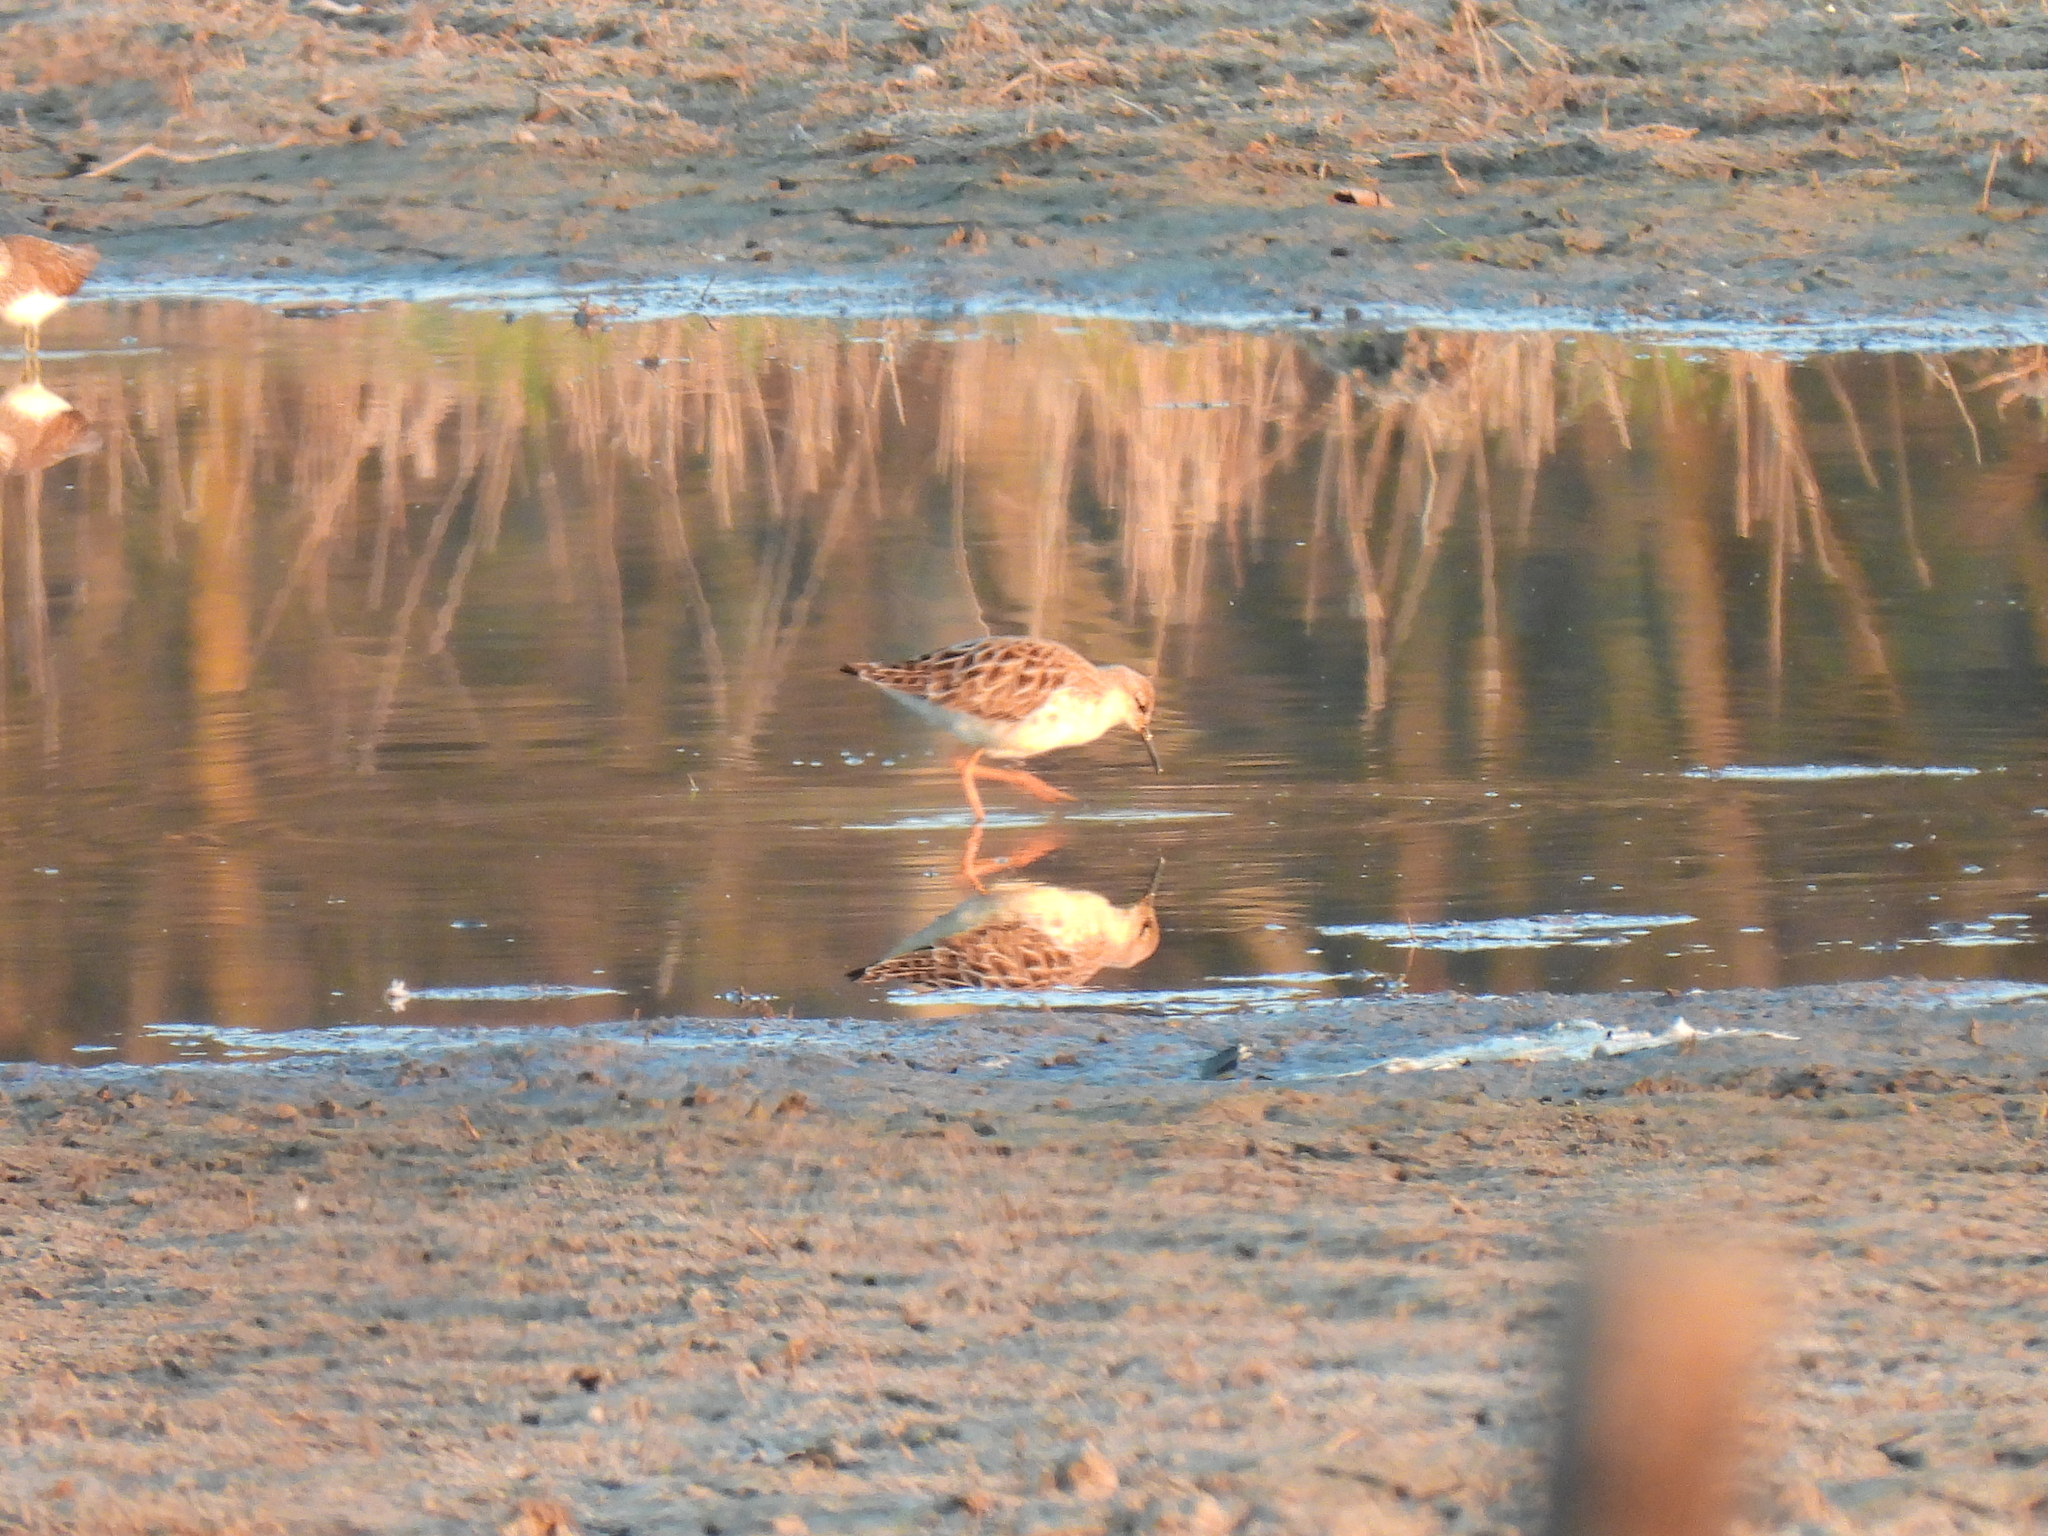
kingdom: Animalia
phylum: Chordata
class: Aves
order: Charadriiformes
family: Scolopacidae
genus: Calidris
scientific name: Calidris pugnax
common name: Ruff
